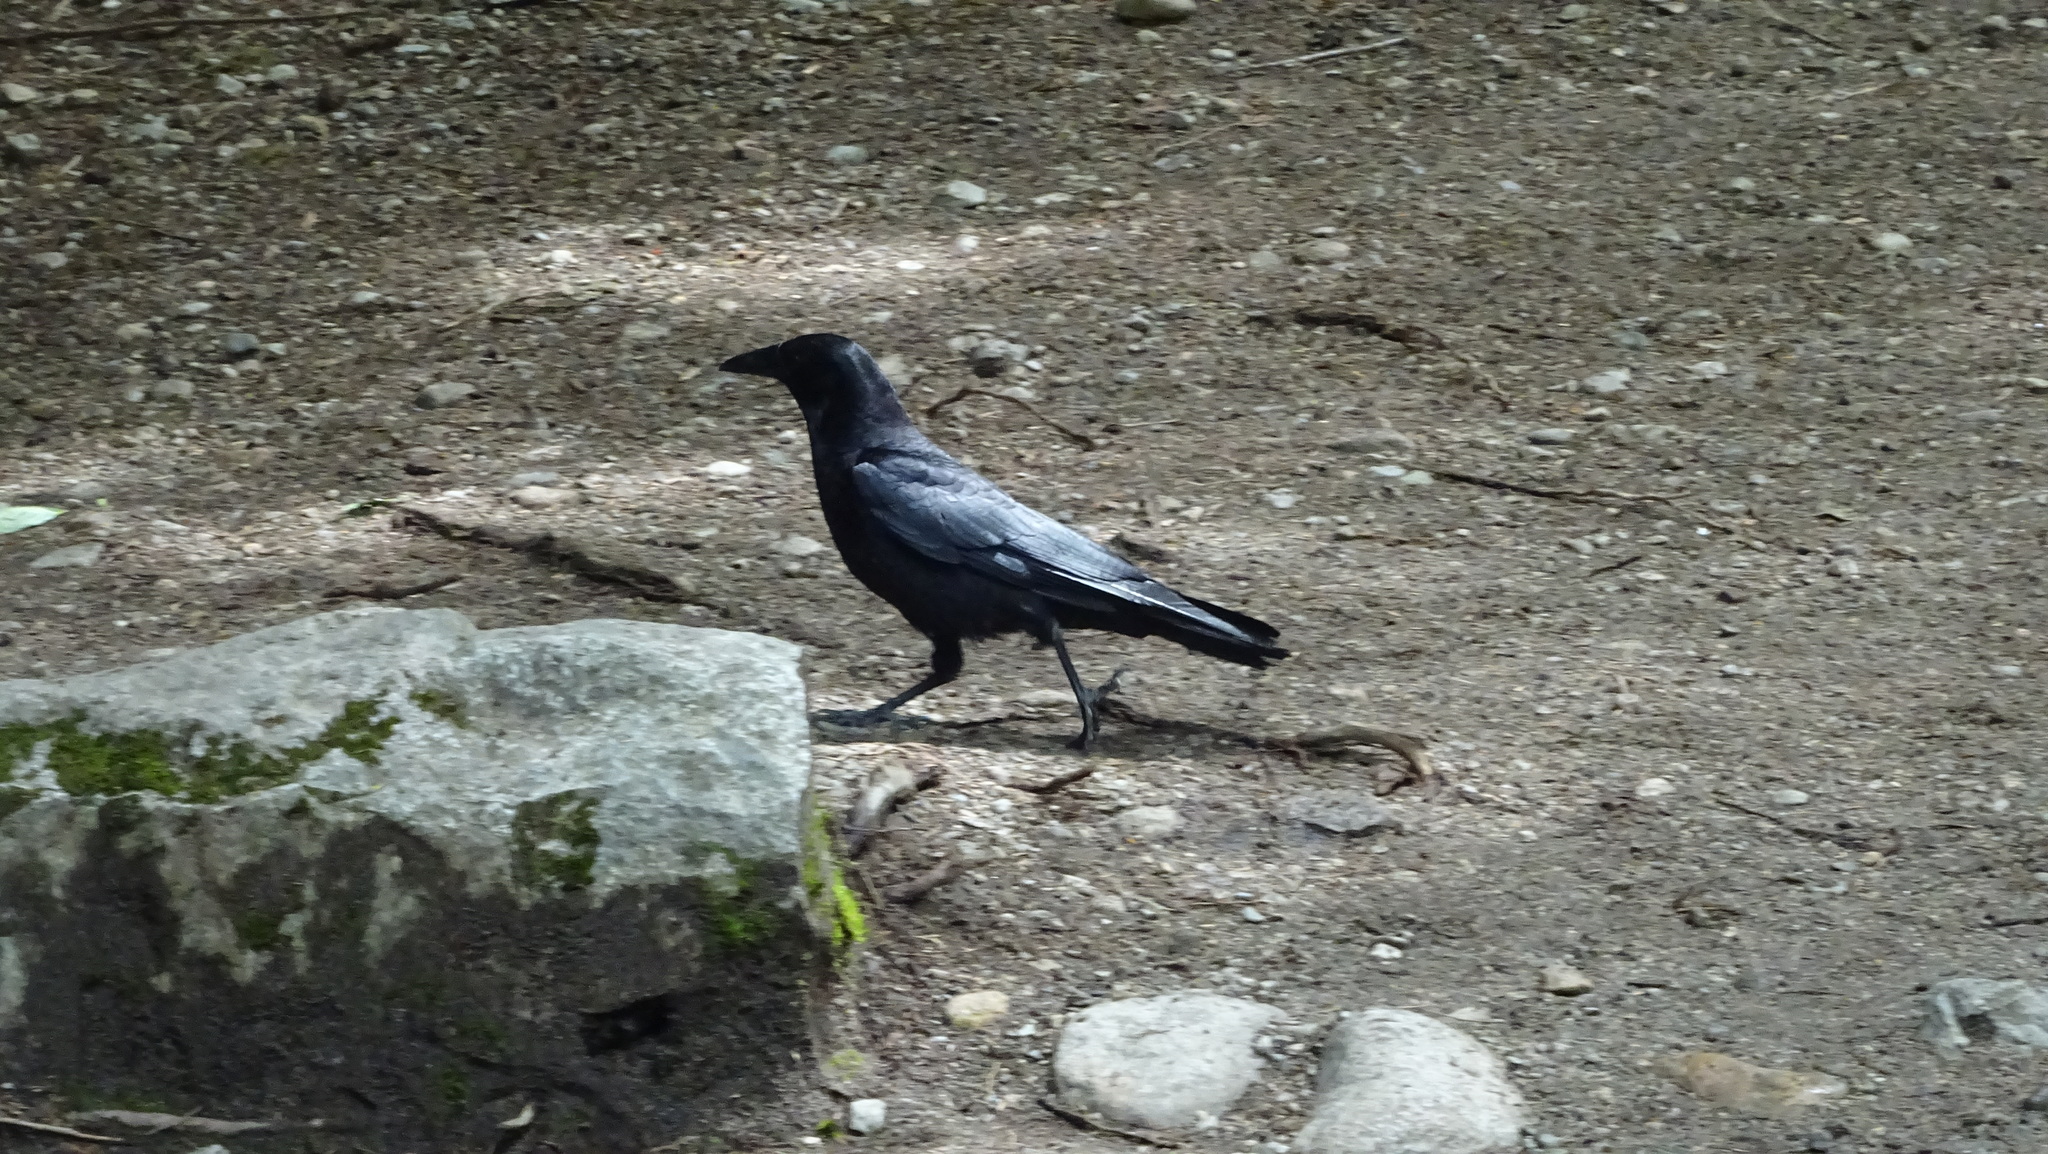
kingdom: Animalia
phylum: Chordata
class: Aves
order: Passeriformes
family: Corvidae
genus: Corvus
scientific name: Corvus brachyrhynchos
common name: American crow
